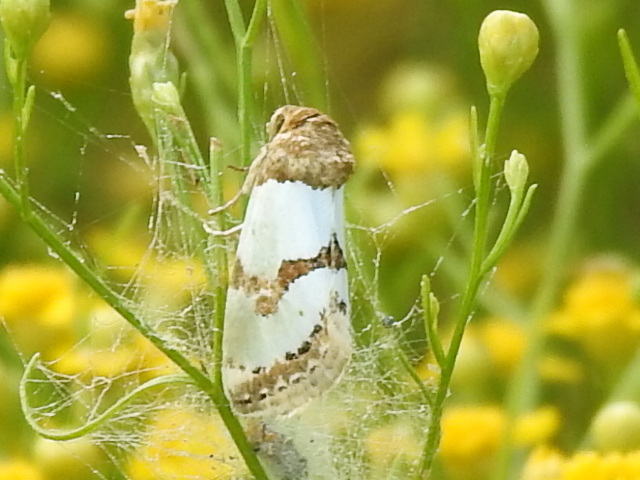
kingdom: Animalia
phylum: Arthropoda
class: Insecta
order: Lepidoptera
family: Noctuidae
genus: Schinia
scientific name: Schinia chrysellus
